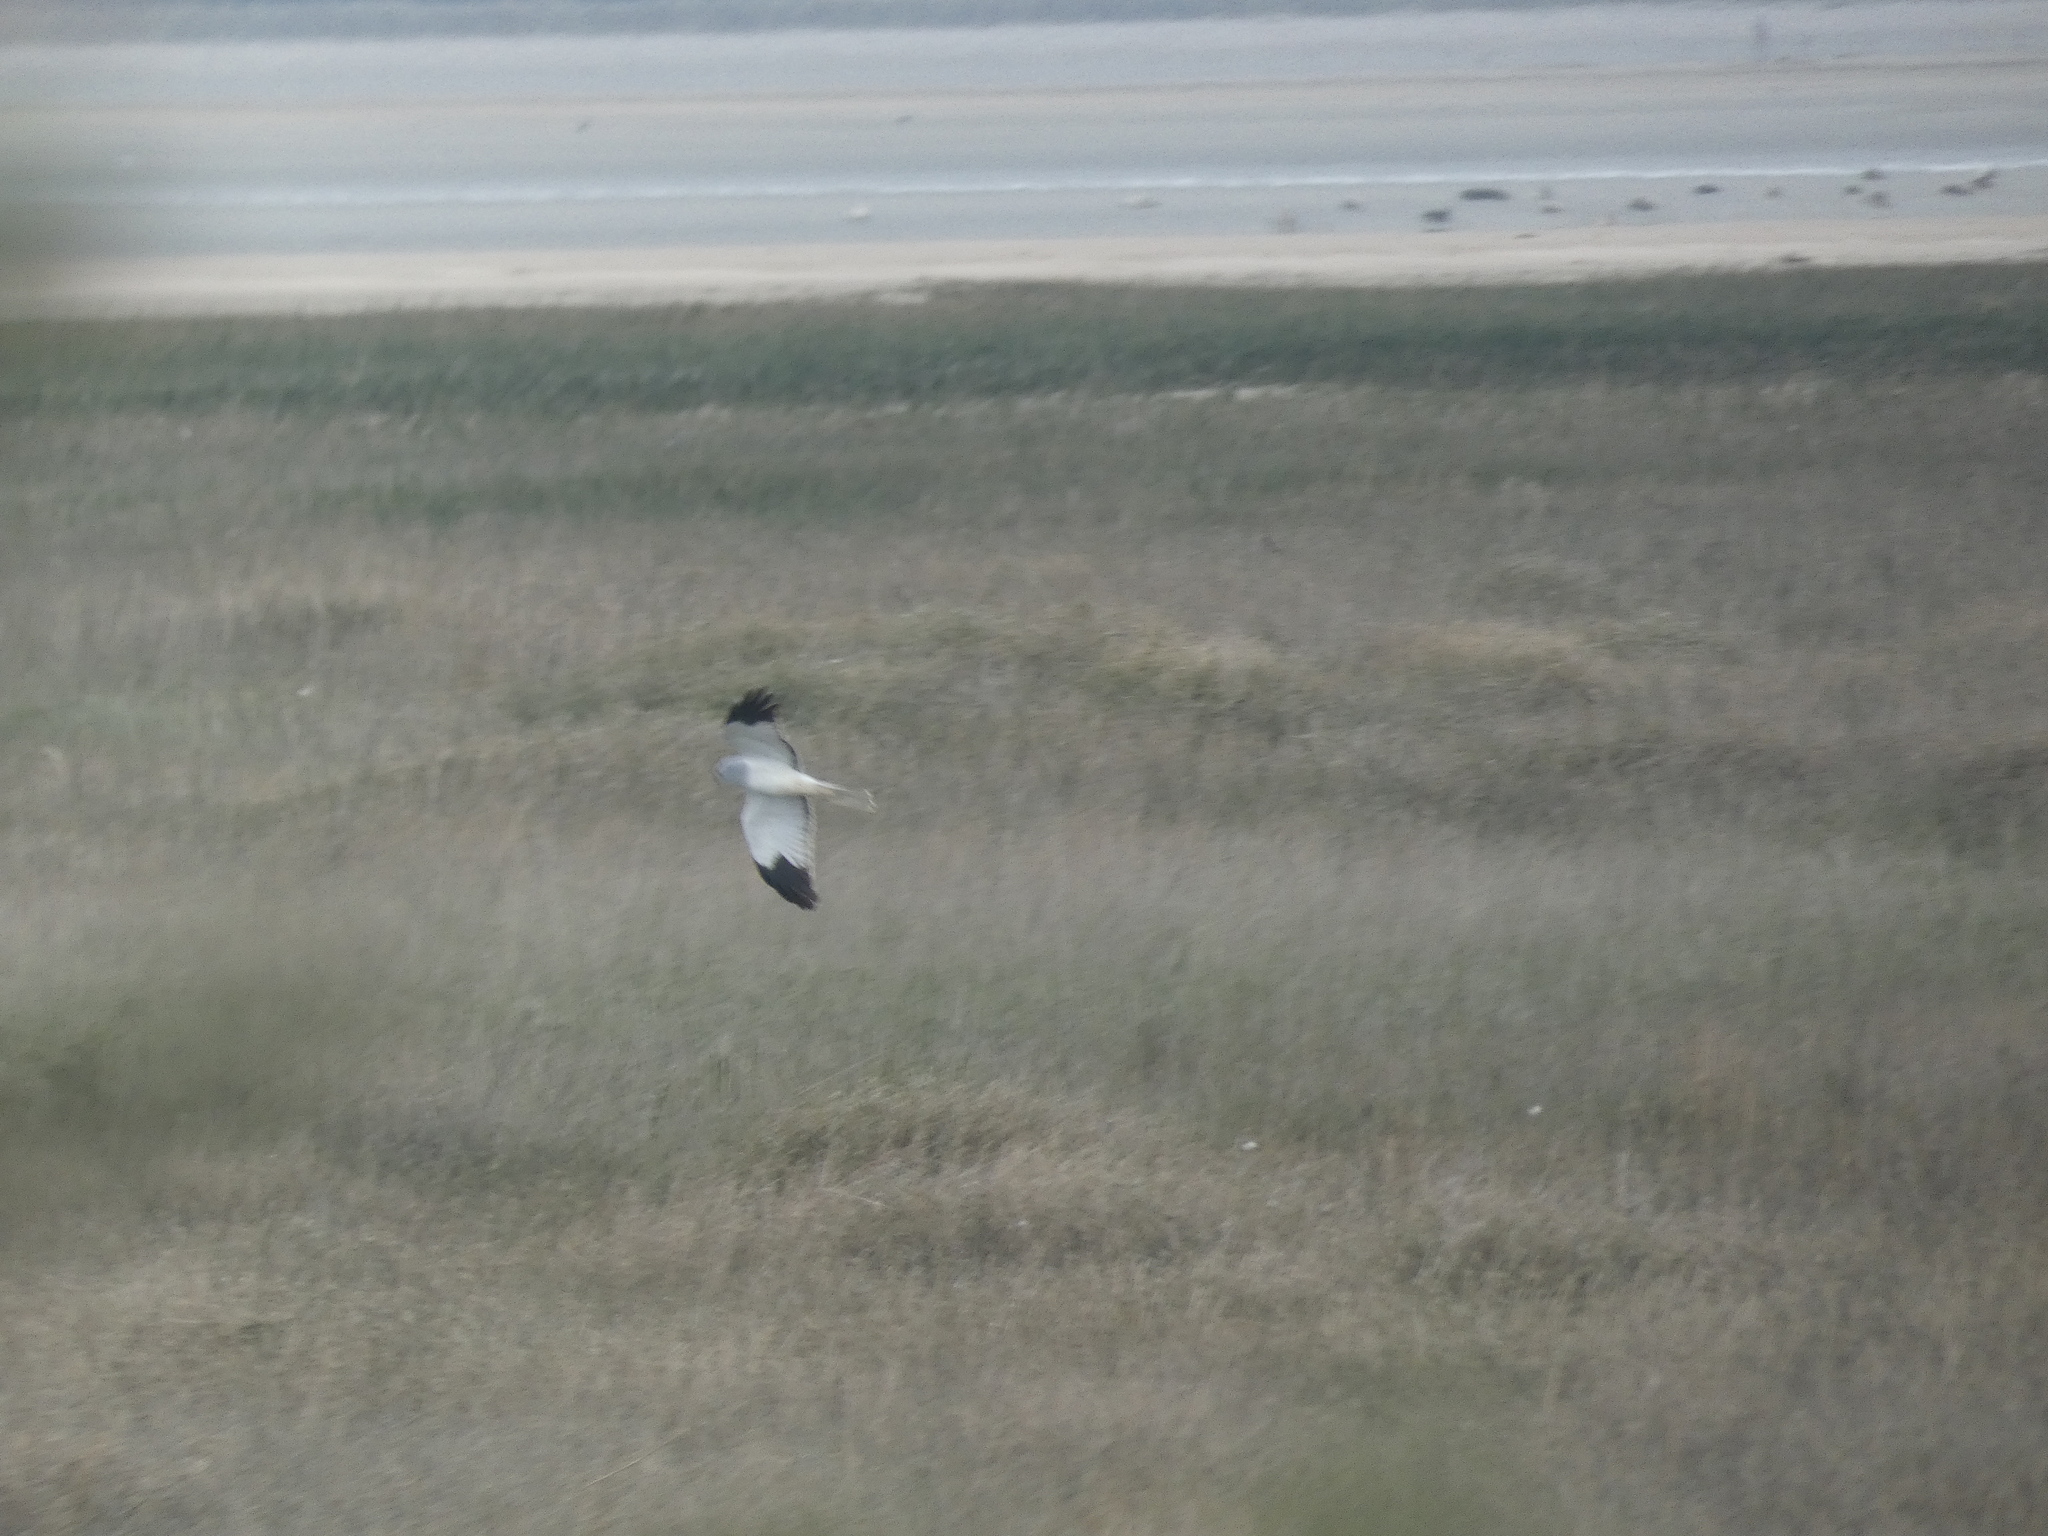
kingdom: Animalia
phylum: Chordata
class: Aves
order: Accipitriformes
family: Accipitridae
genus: Circus
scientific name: Circus cyaneus
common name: Hen harrier
